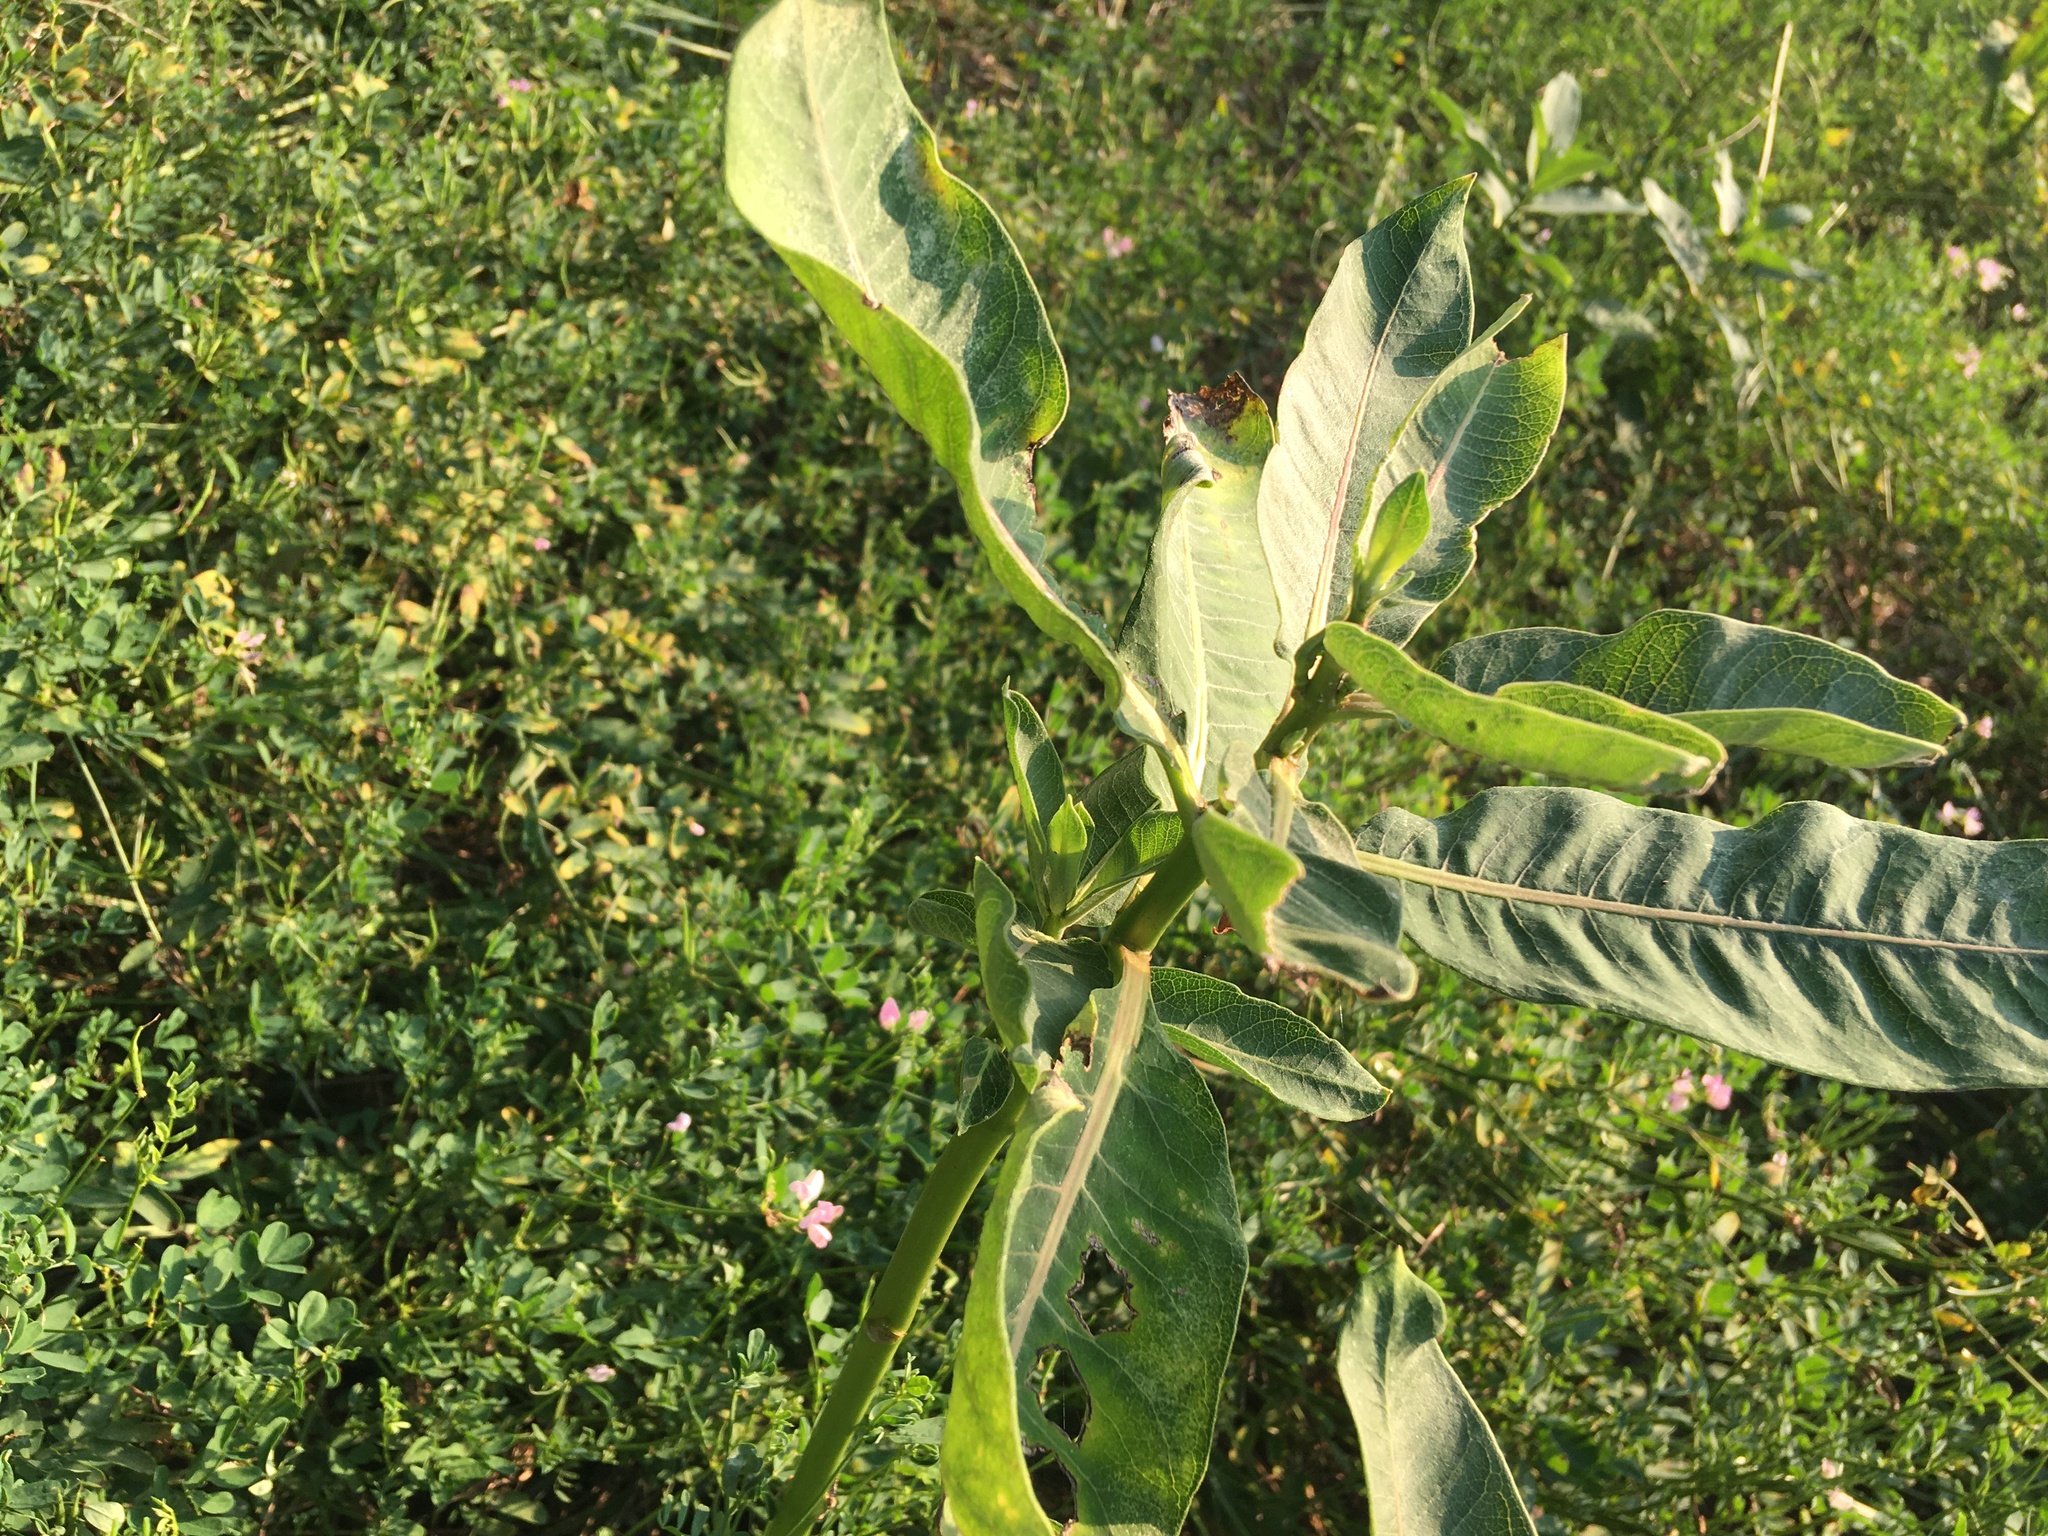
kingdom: Plantae
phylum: Tracheophyta
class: Magnoliopsida
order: Gentianales
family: Apocynaceae
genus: Asclepias
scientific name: Asclepias syriaca
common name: Common milkweed
